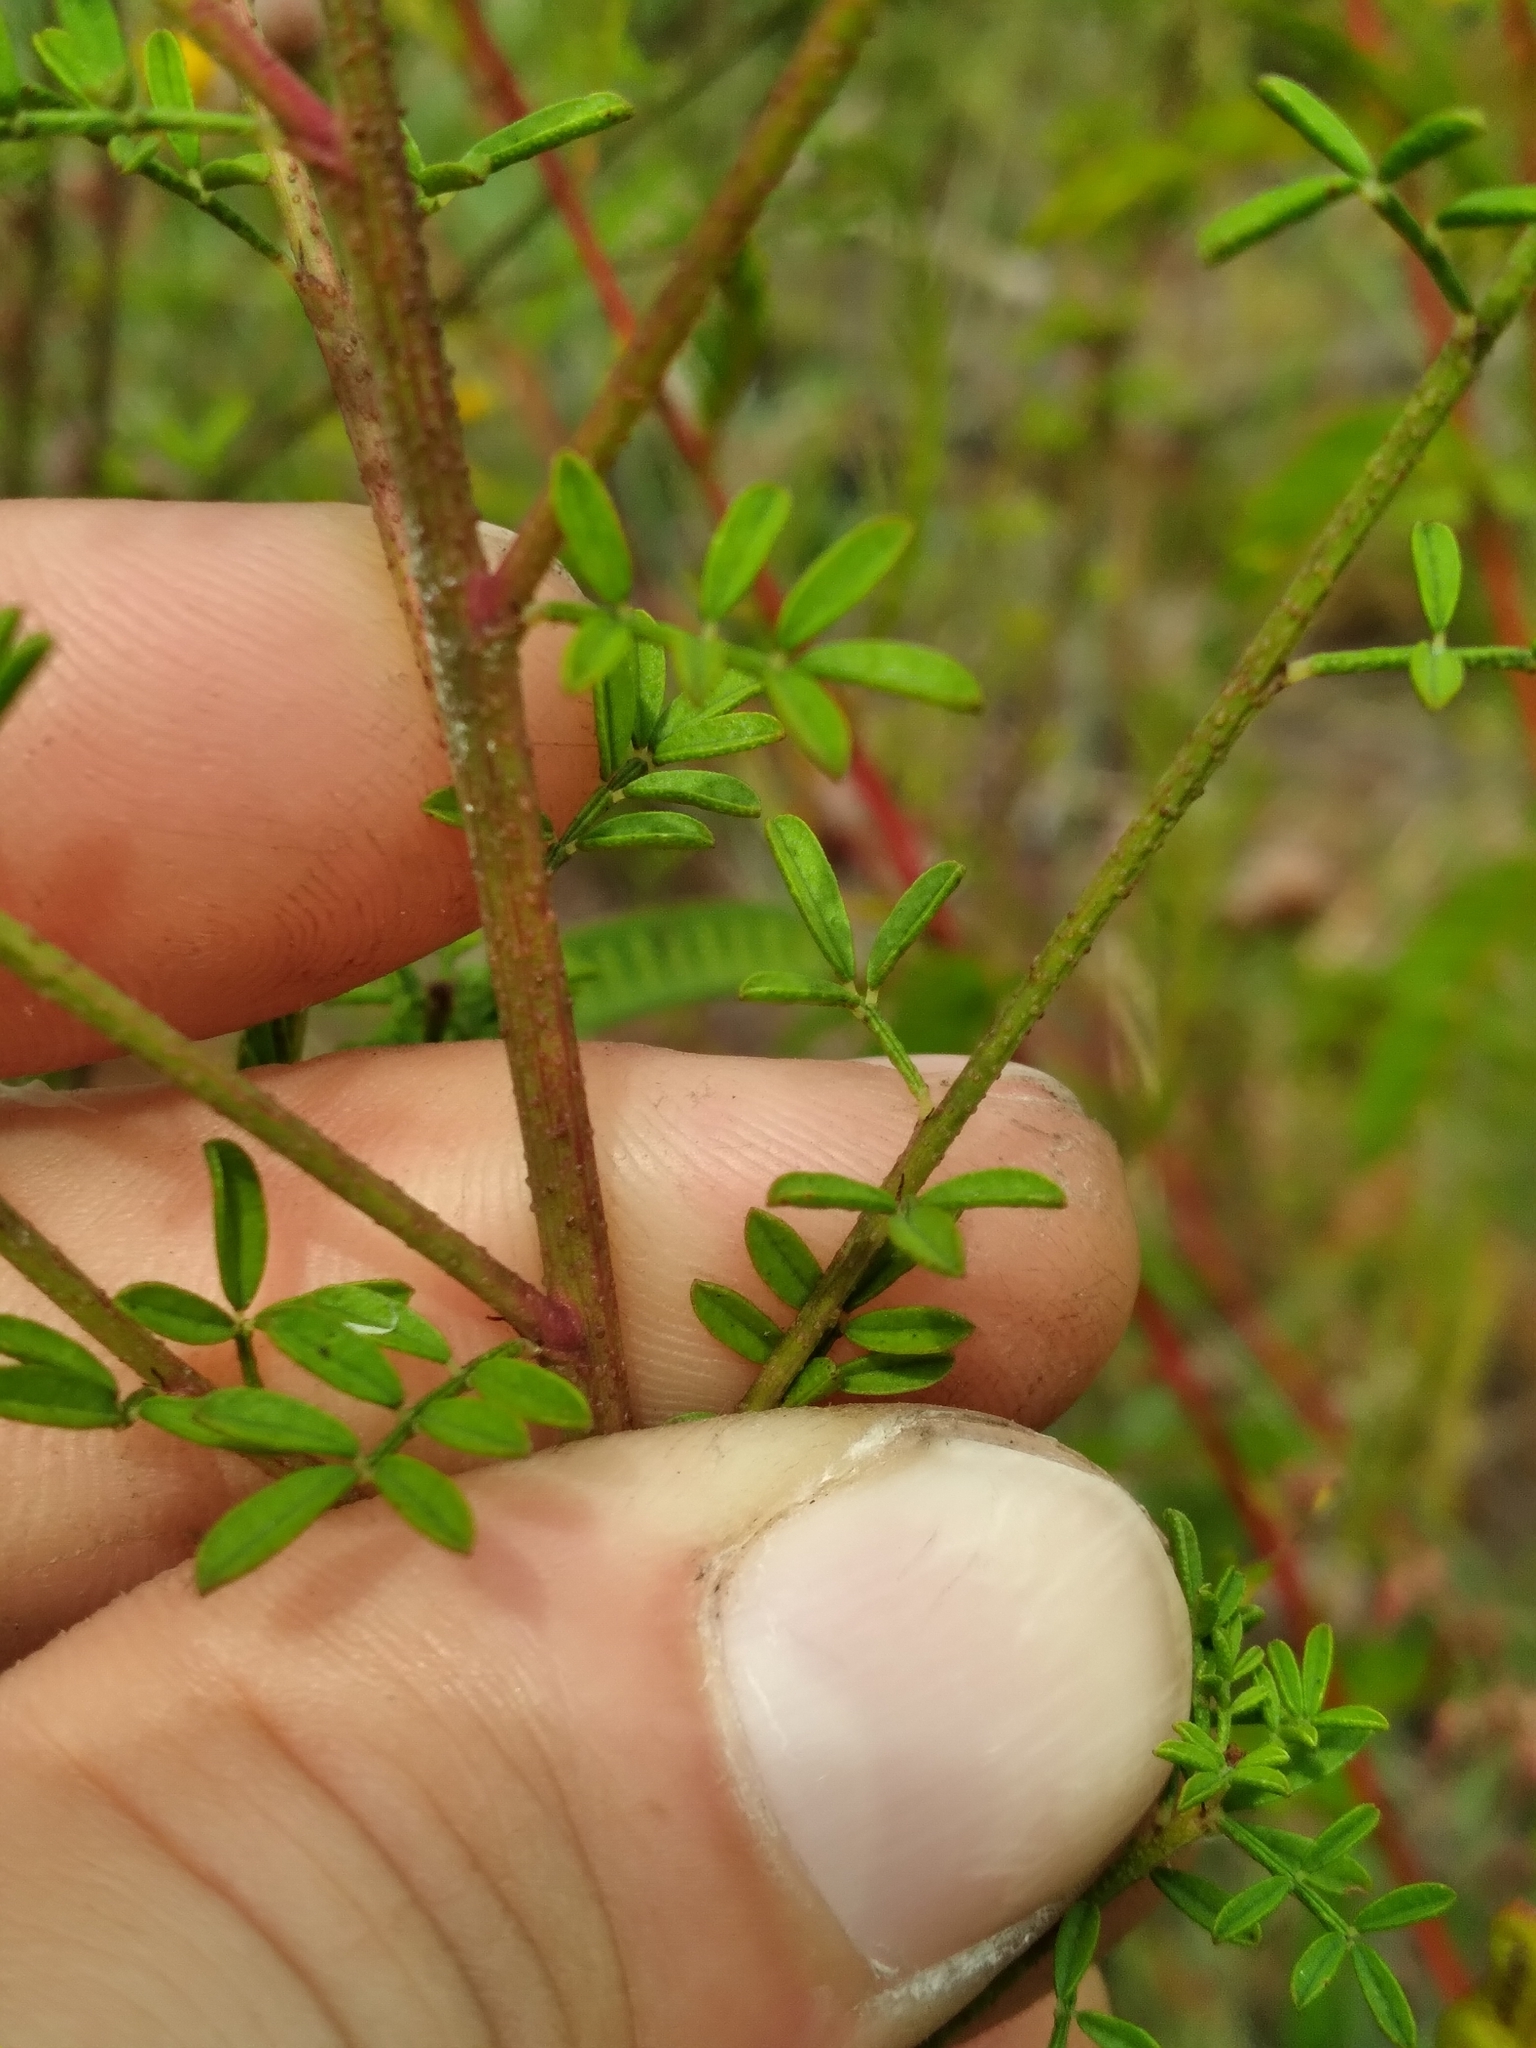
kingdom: Plantae
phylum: Tracheophyta
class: Magnoliopsida
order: Fabales
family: Fabaceae
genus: Dalea
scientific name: Dalea pinnata
